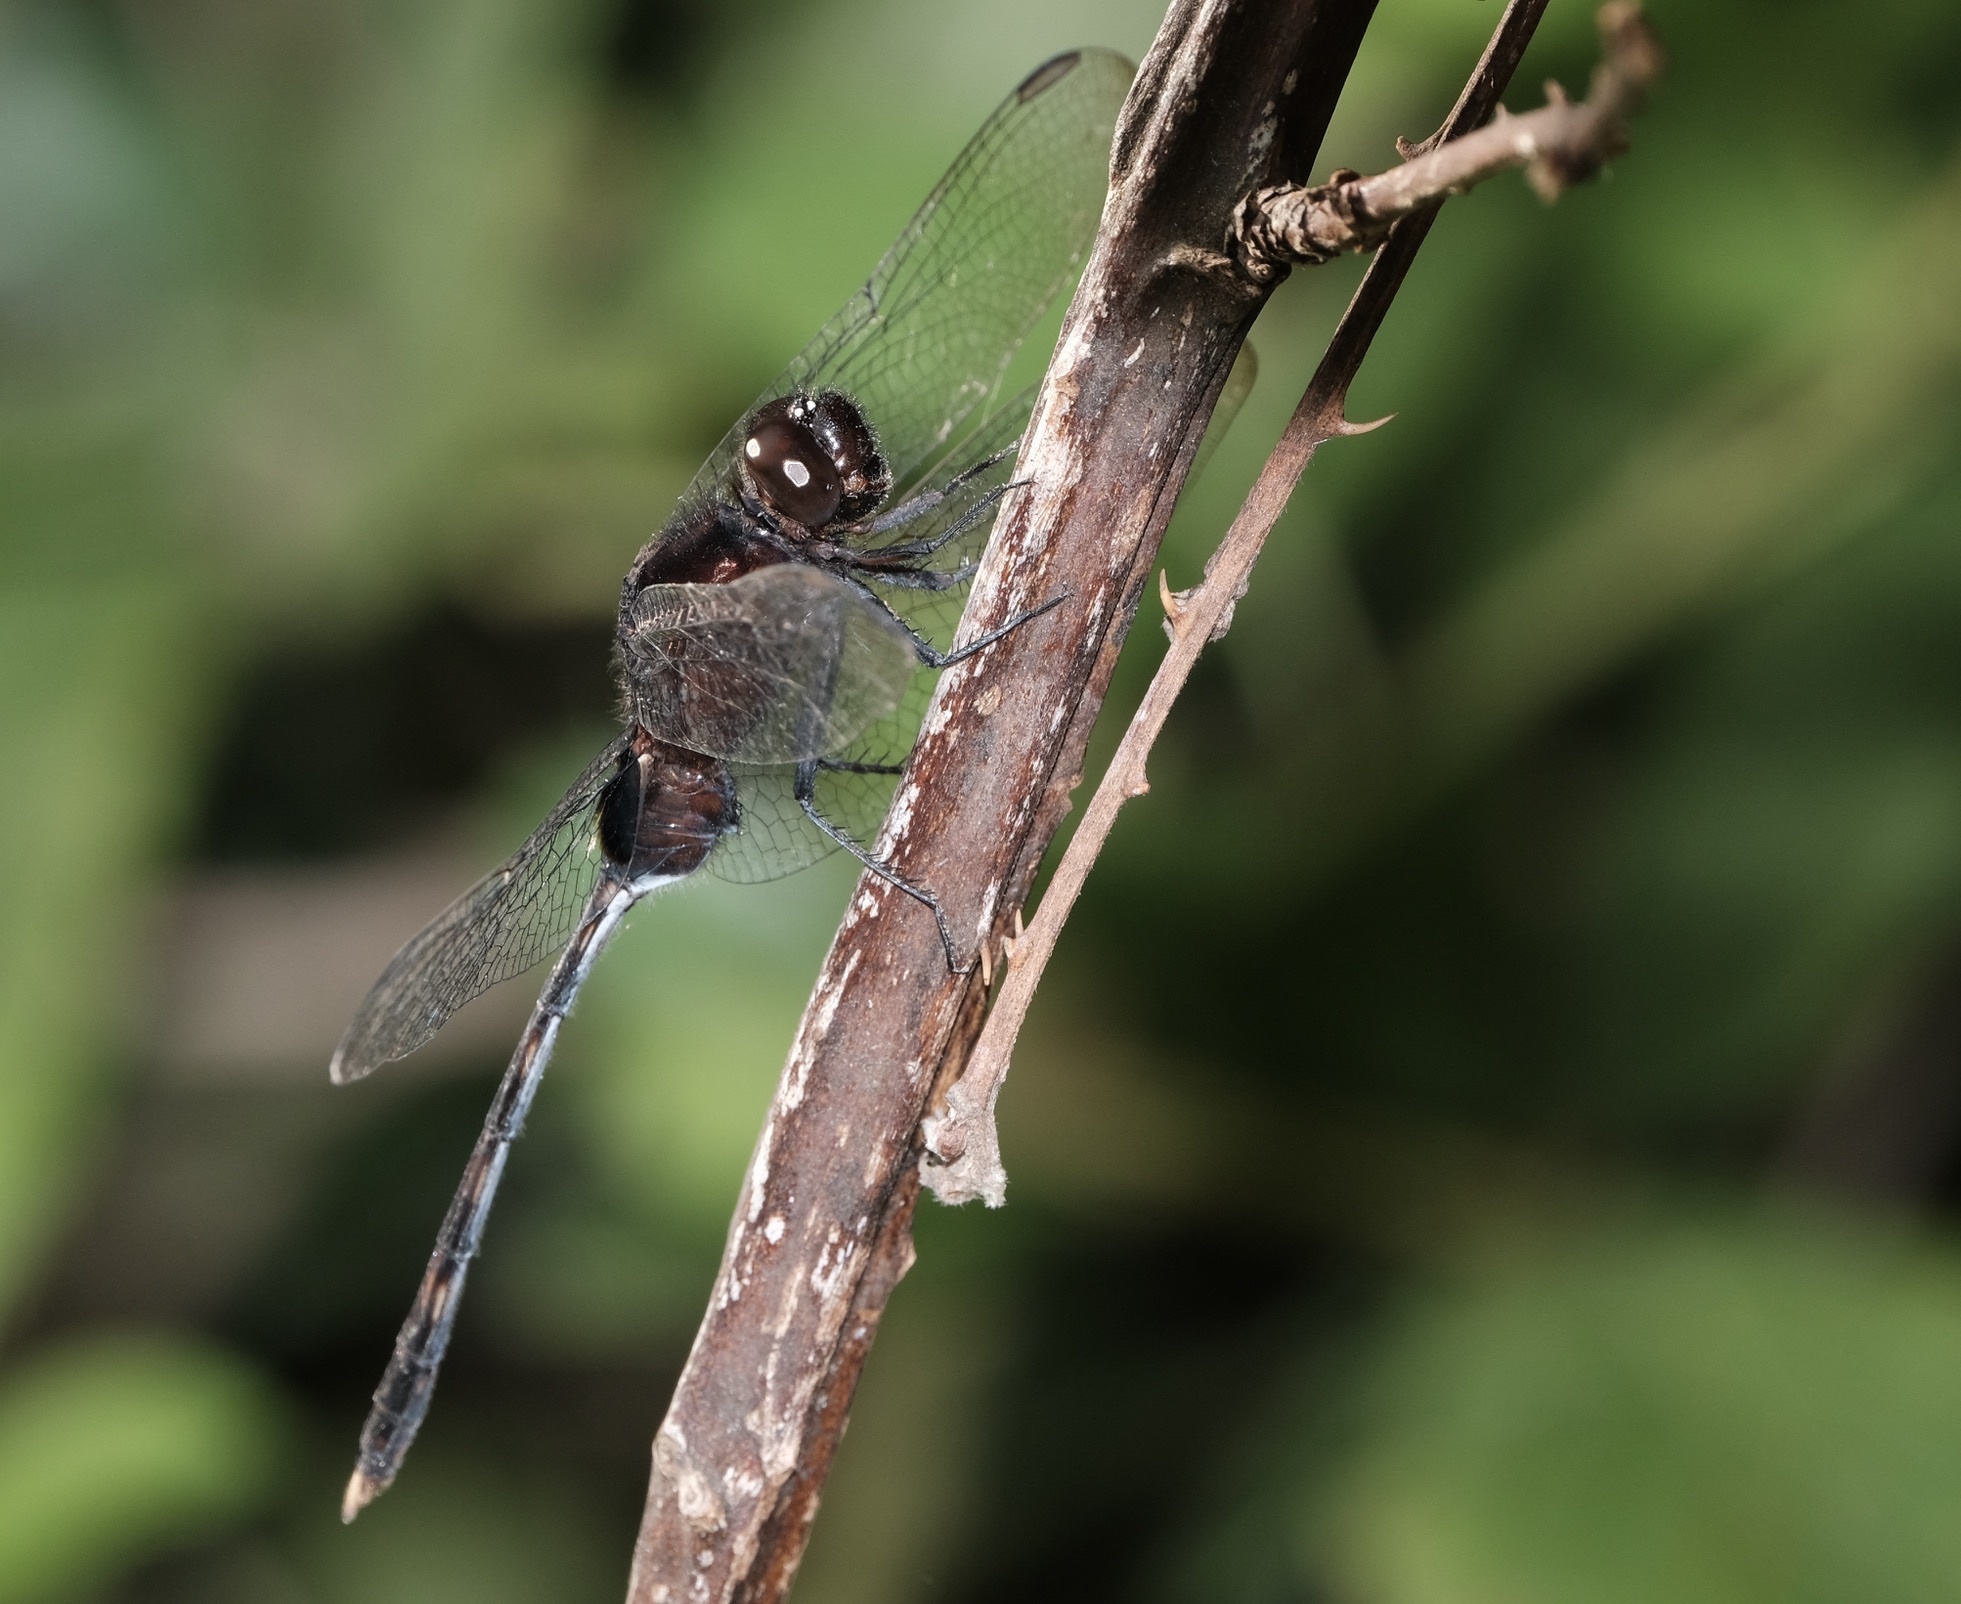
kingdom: Animalia
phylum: Arthropoda
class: Insecta
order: Odonata
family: Libellulidae
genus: Erythemis
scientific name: Erythemis plebeja
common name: Pin-tailed pondhawk
